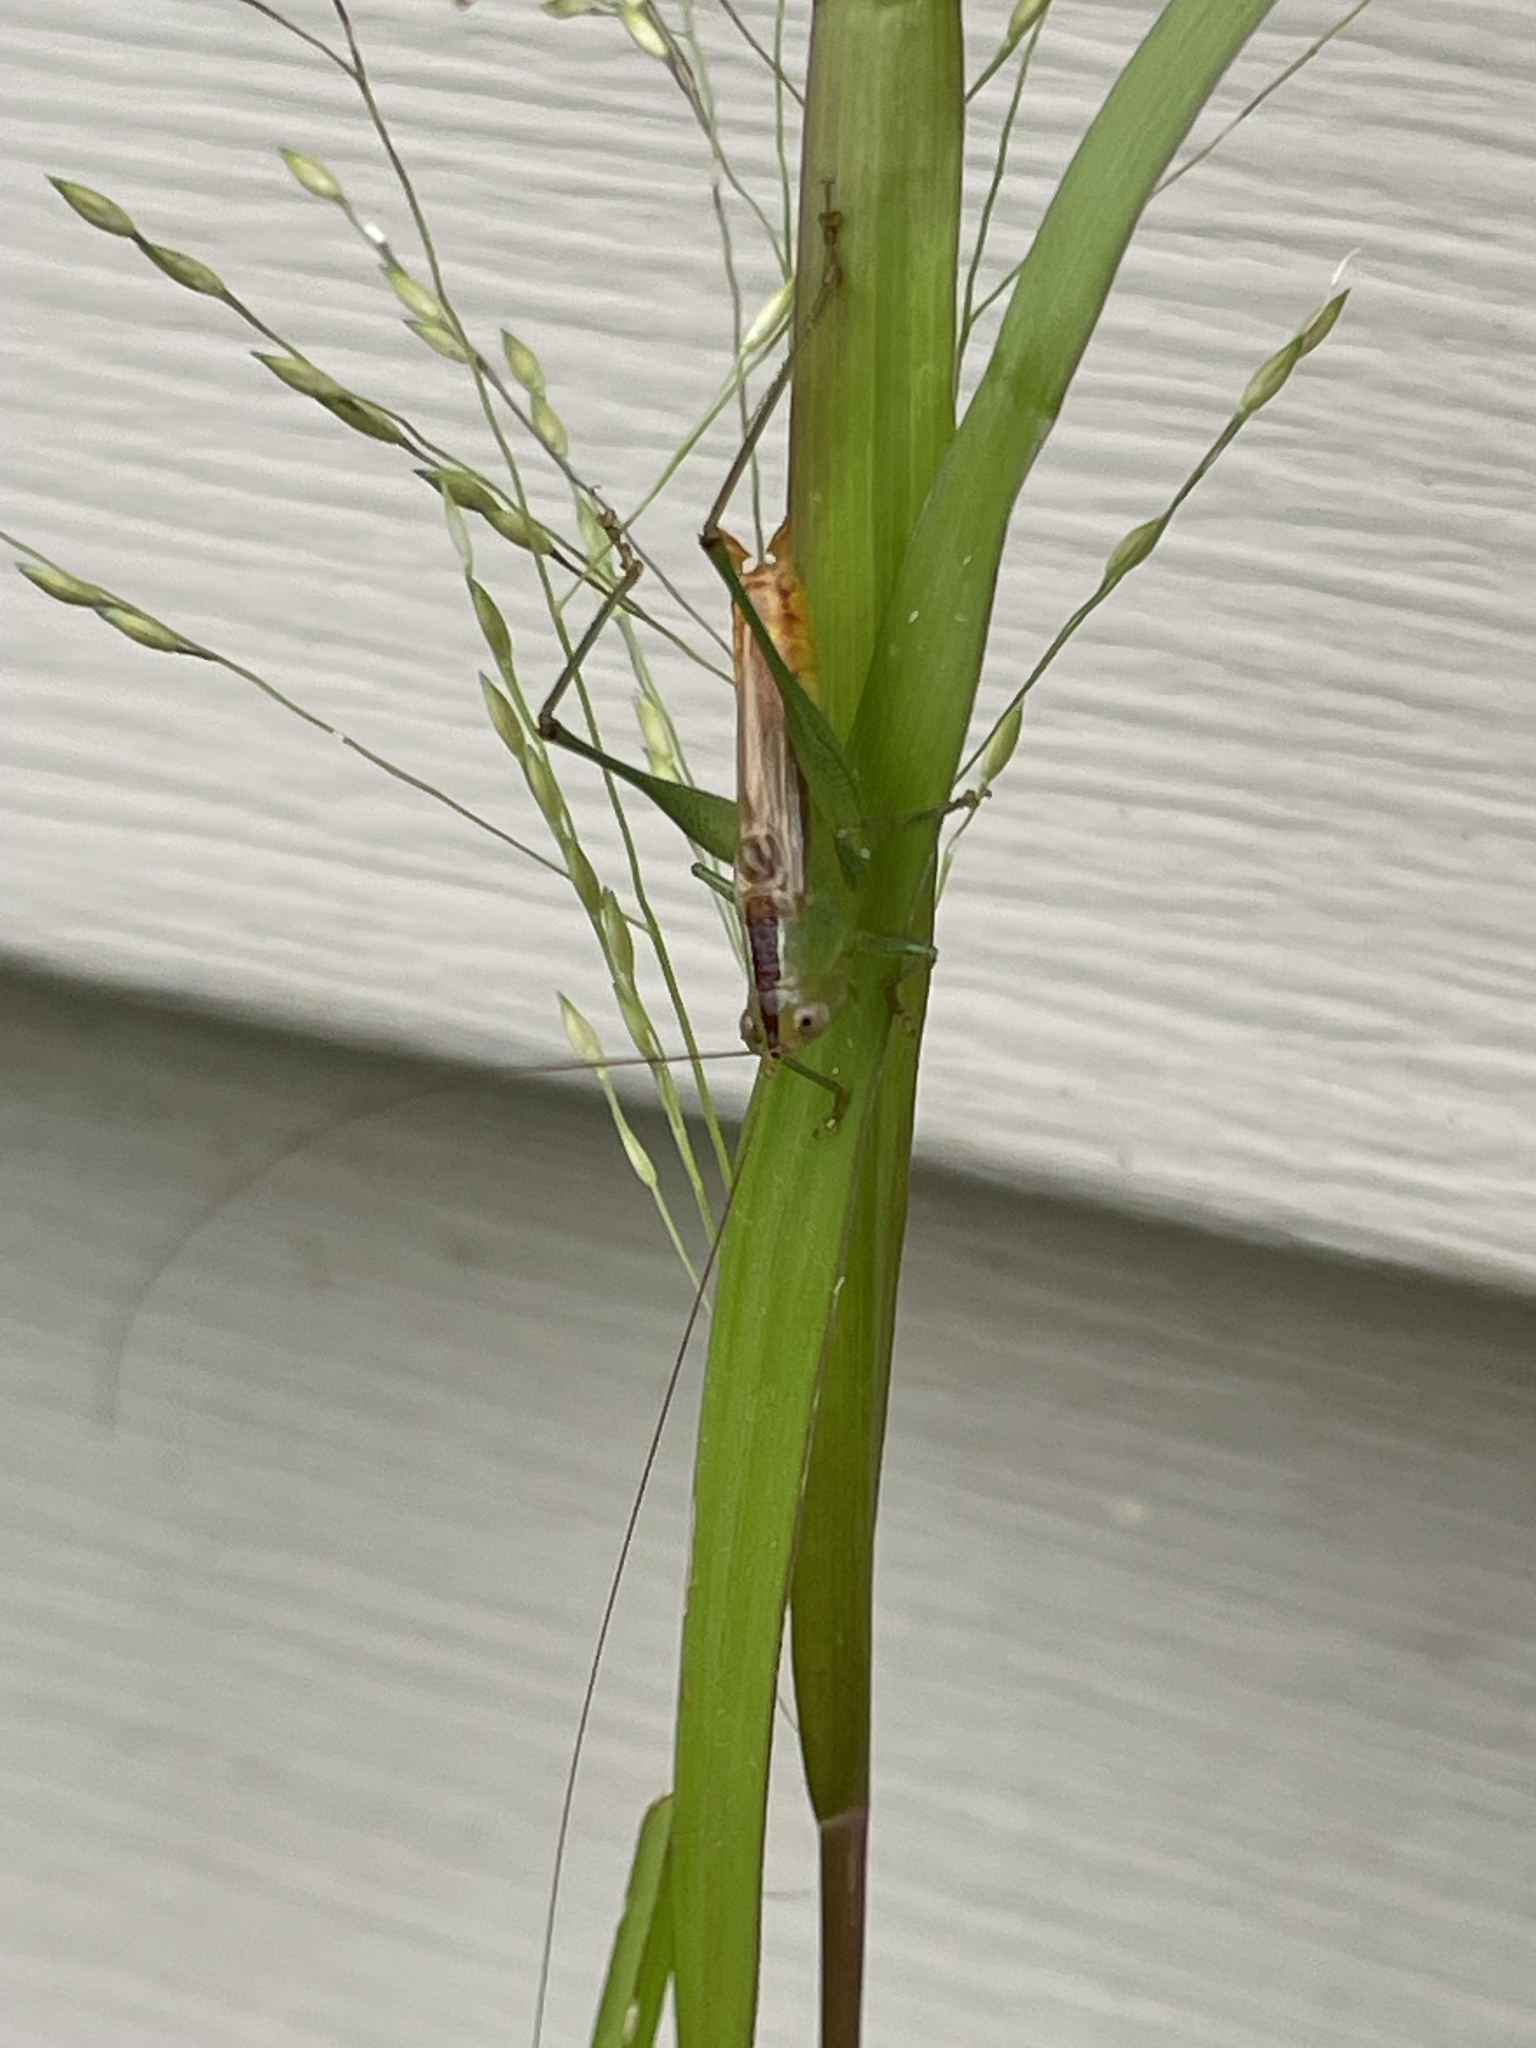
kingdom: Animalia
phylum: Arthropoda
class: Insecta
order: Orthoptera
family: Tettigoniidae
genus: Conocephalus
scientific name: Conocephalus brevipennis
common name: Short-winged meadow katydid
